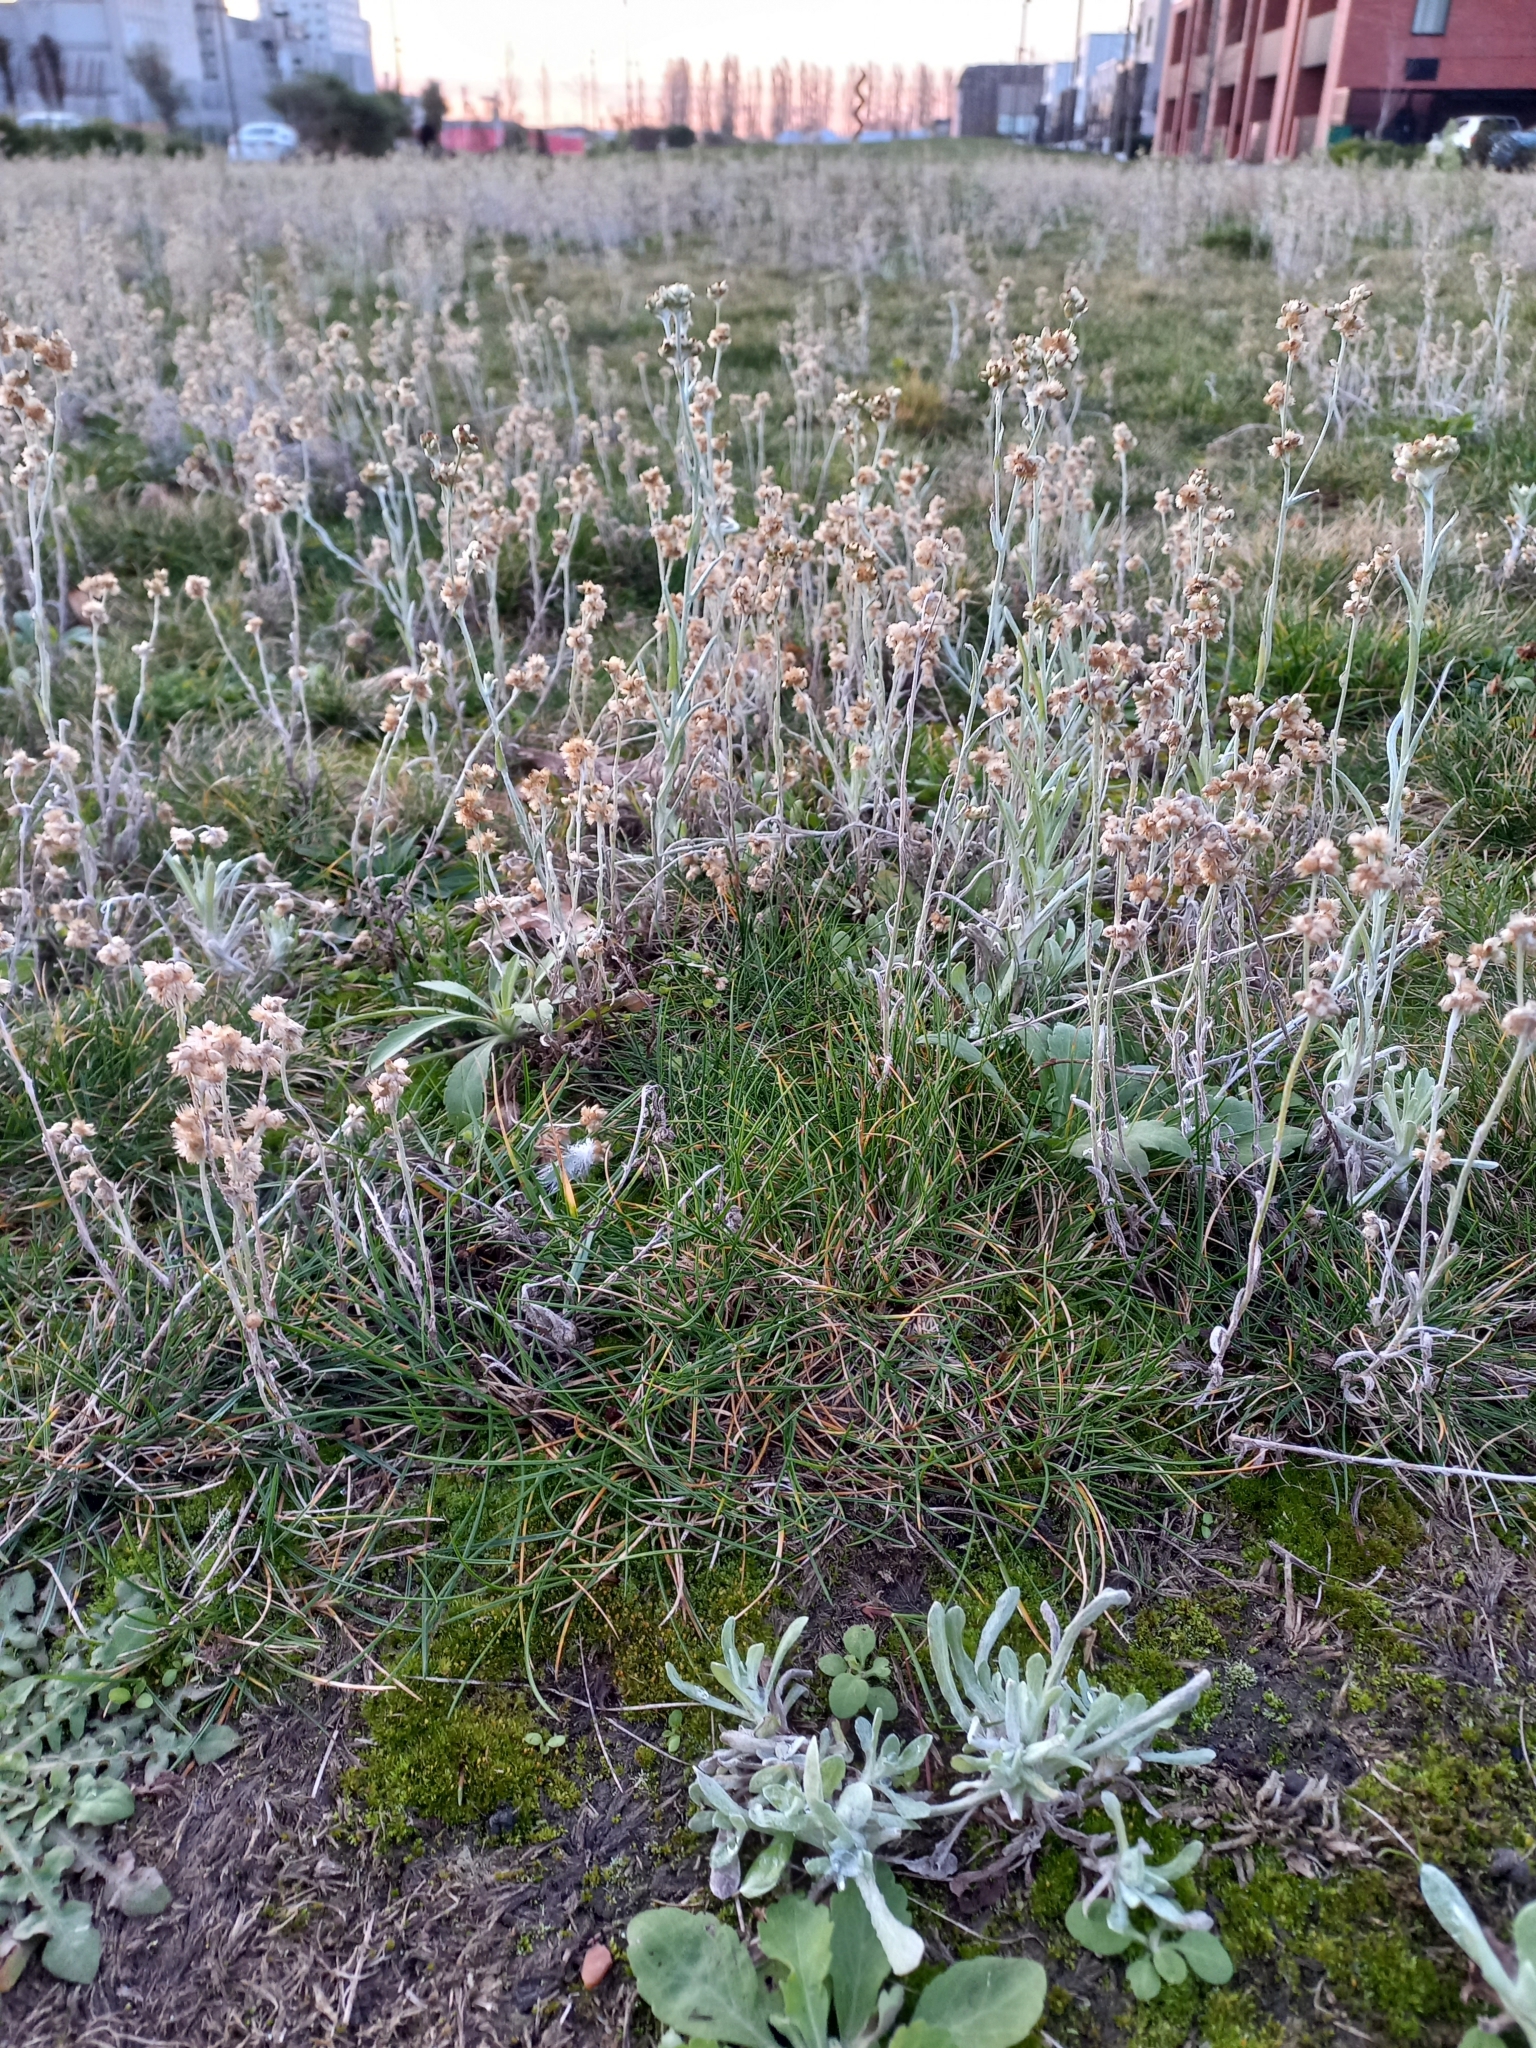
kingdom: Plantae
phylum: Tracheophyta
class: Magnoliopsida
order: Asterales
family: Asteraceae
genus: Helichrysum
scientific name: Helichrysum luteoalbum
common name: Daisy
